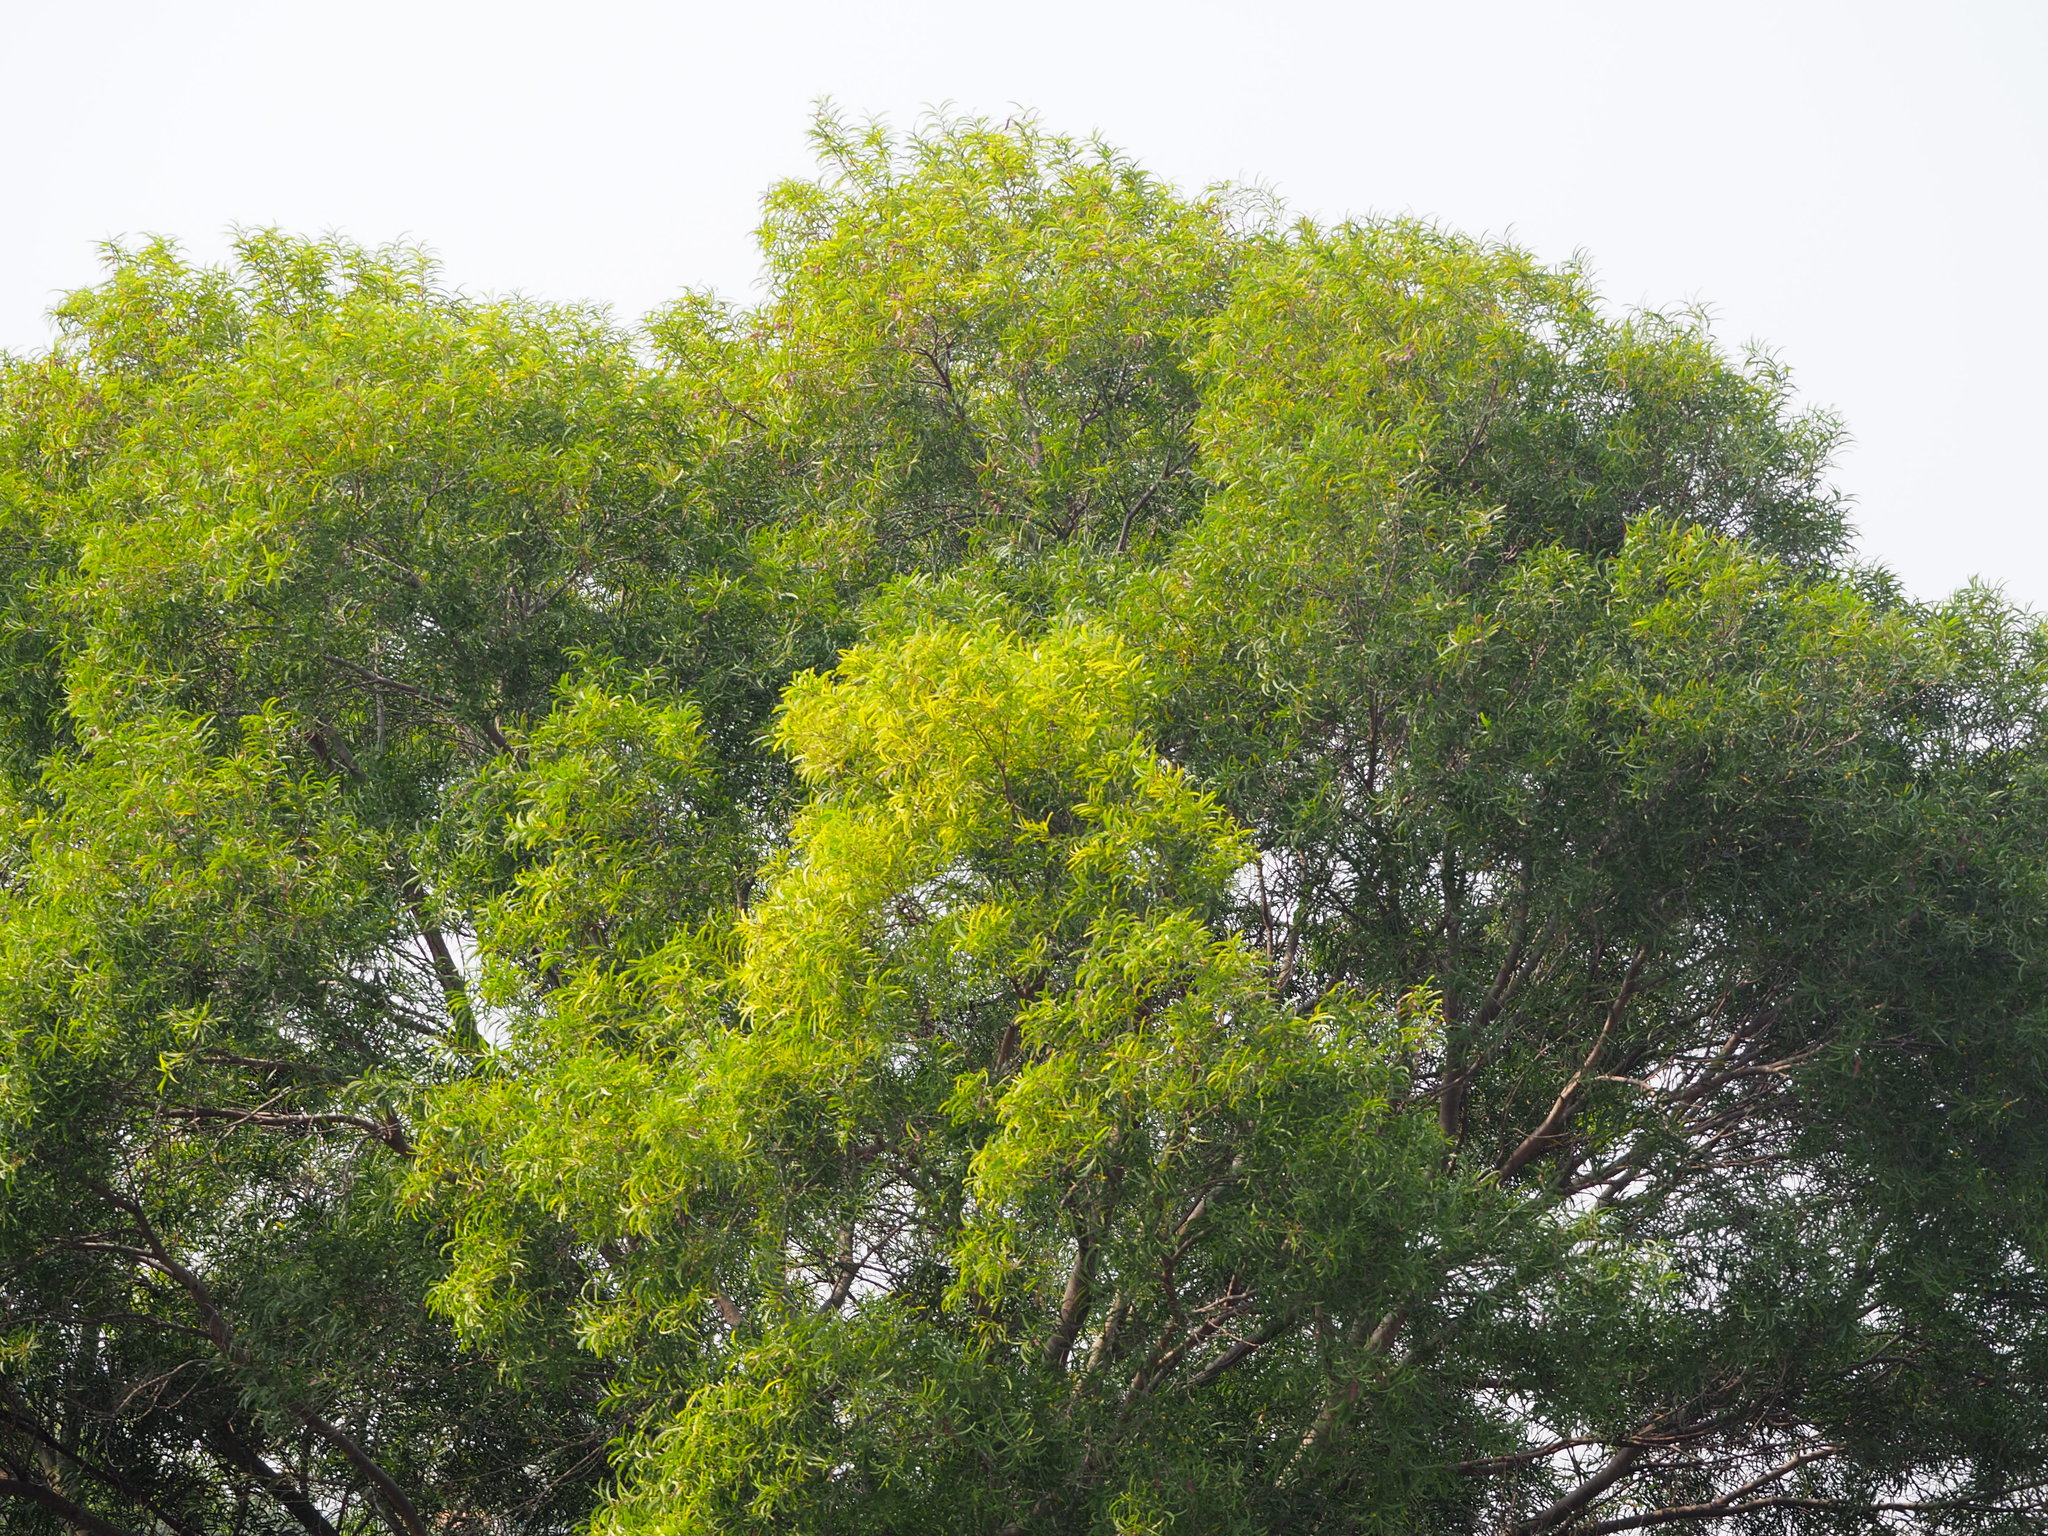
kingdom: Plantae
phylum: Tracheophyta
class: Magnoliopsida
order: Fabales
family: Fabaceae
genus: Acacia
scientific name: Acacia confusa
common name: Formosan koa
